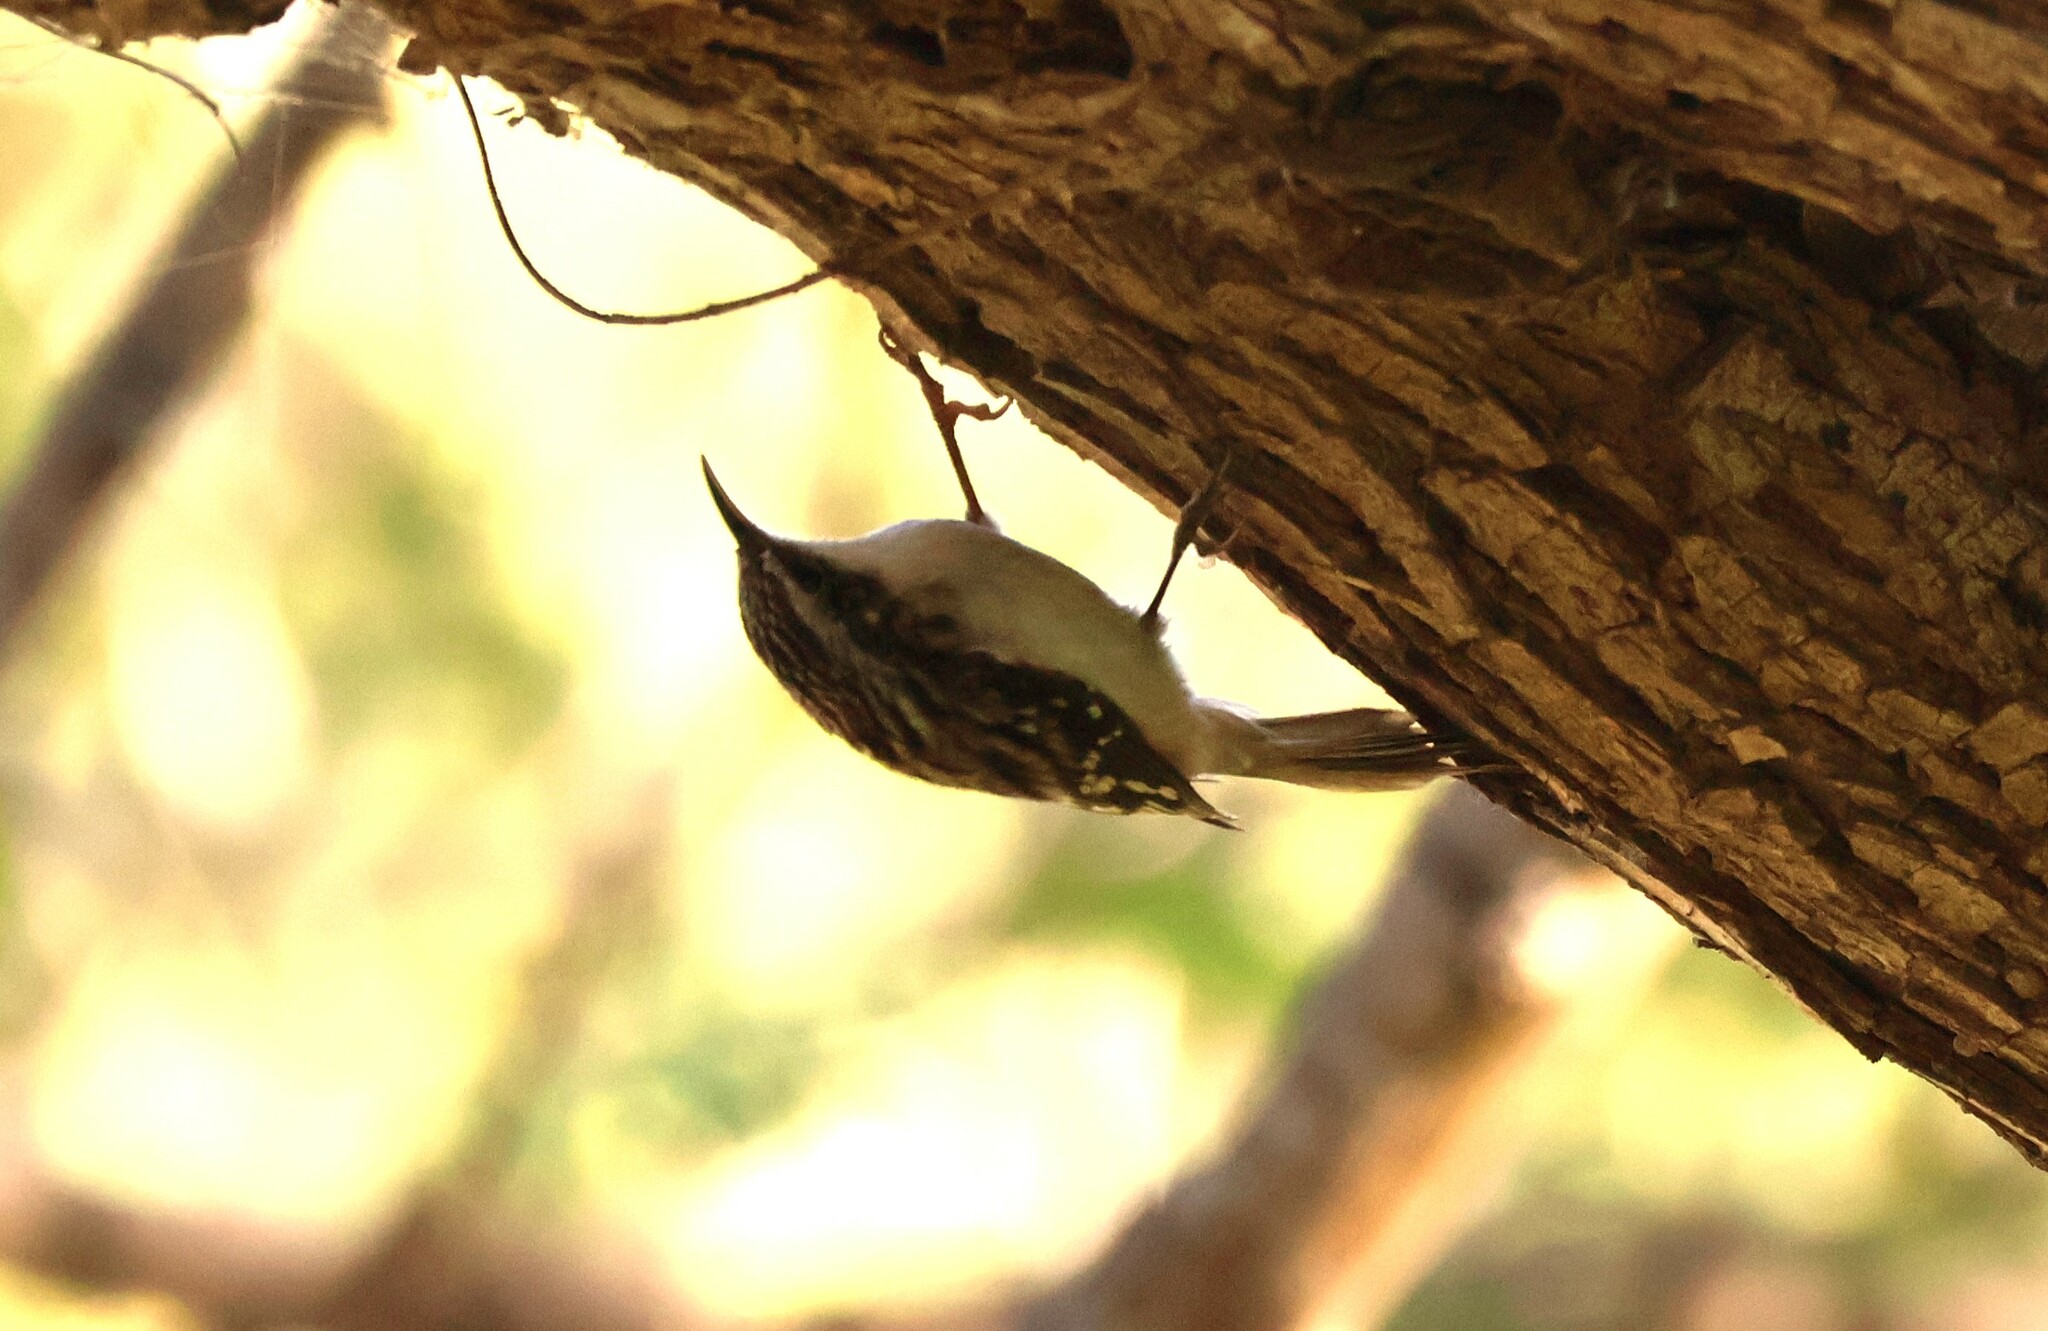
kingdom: Animalia
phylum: Chordata
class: Aves
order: Passeriformes
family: Certhiidae
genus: Certhia
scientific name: Certhia americana
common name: Brown creeper
